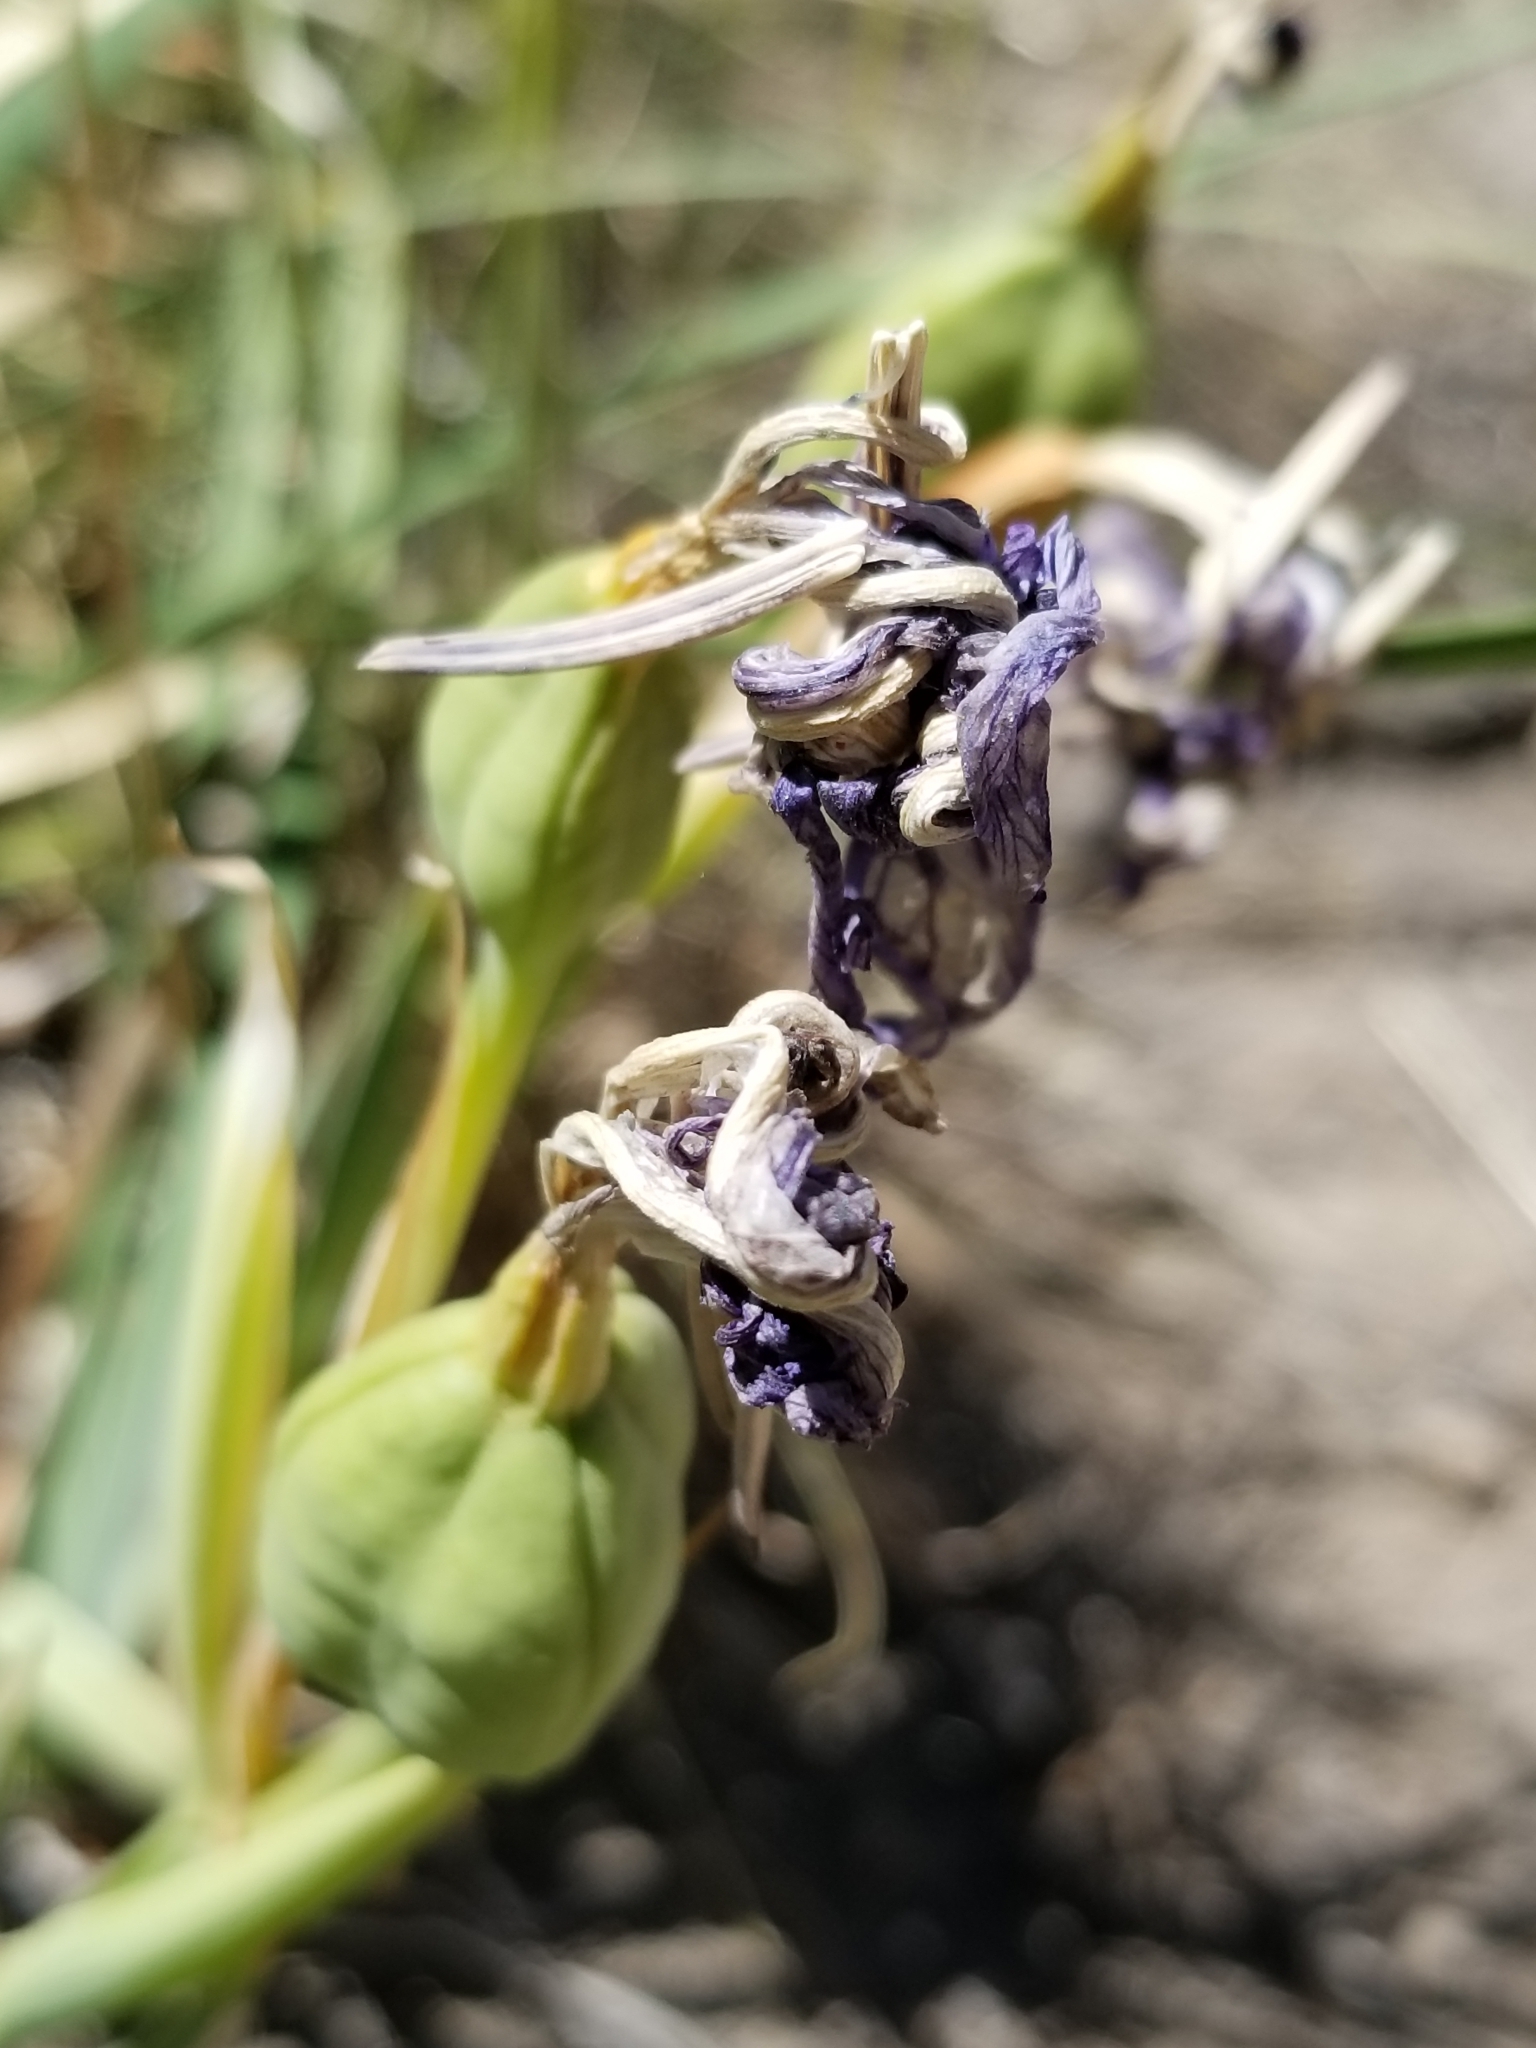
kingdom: Plantae
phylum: Tracheophyta
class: Liliopsida
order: Asparagales
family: Iridaceae
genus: Iris
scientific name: Iris hartwegii
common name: Sierra iris
